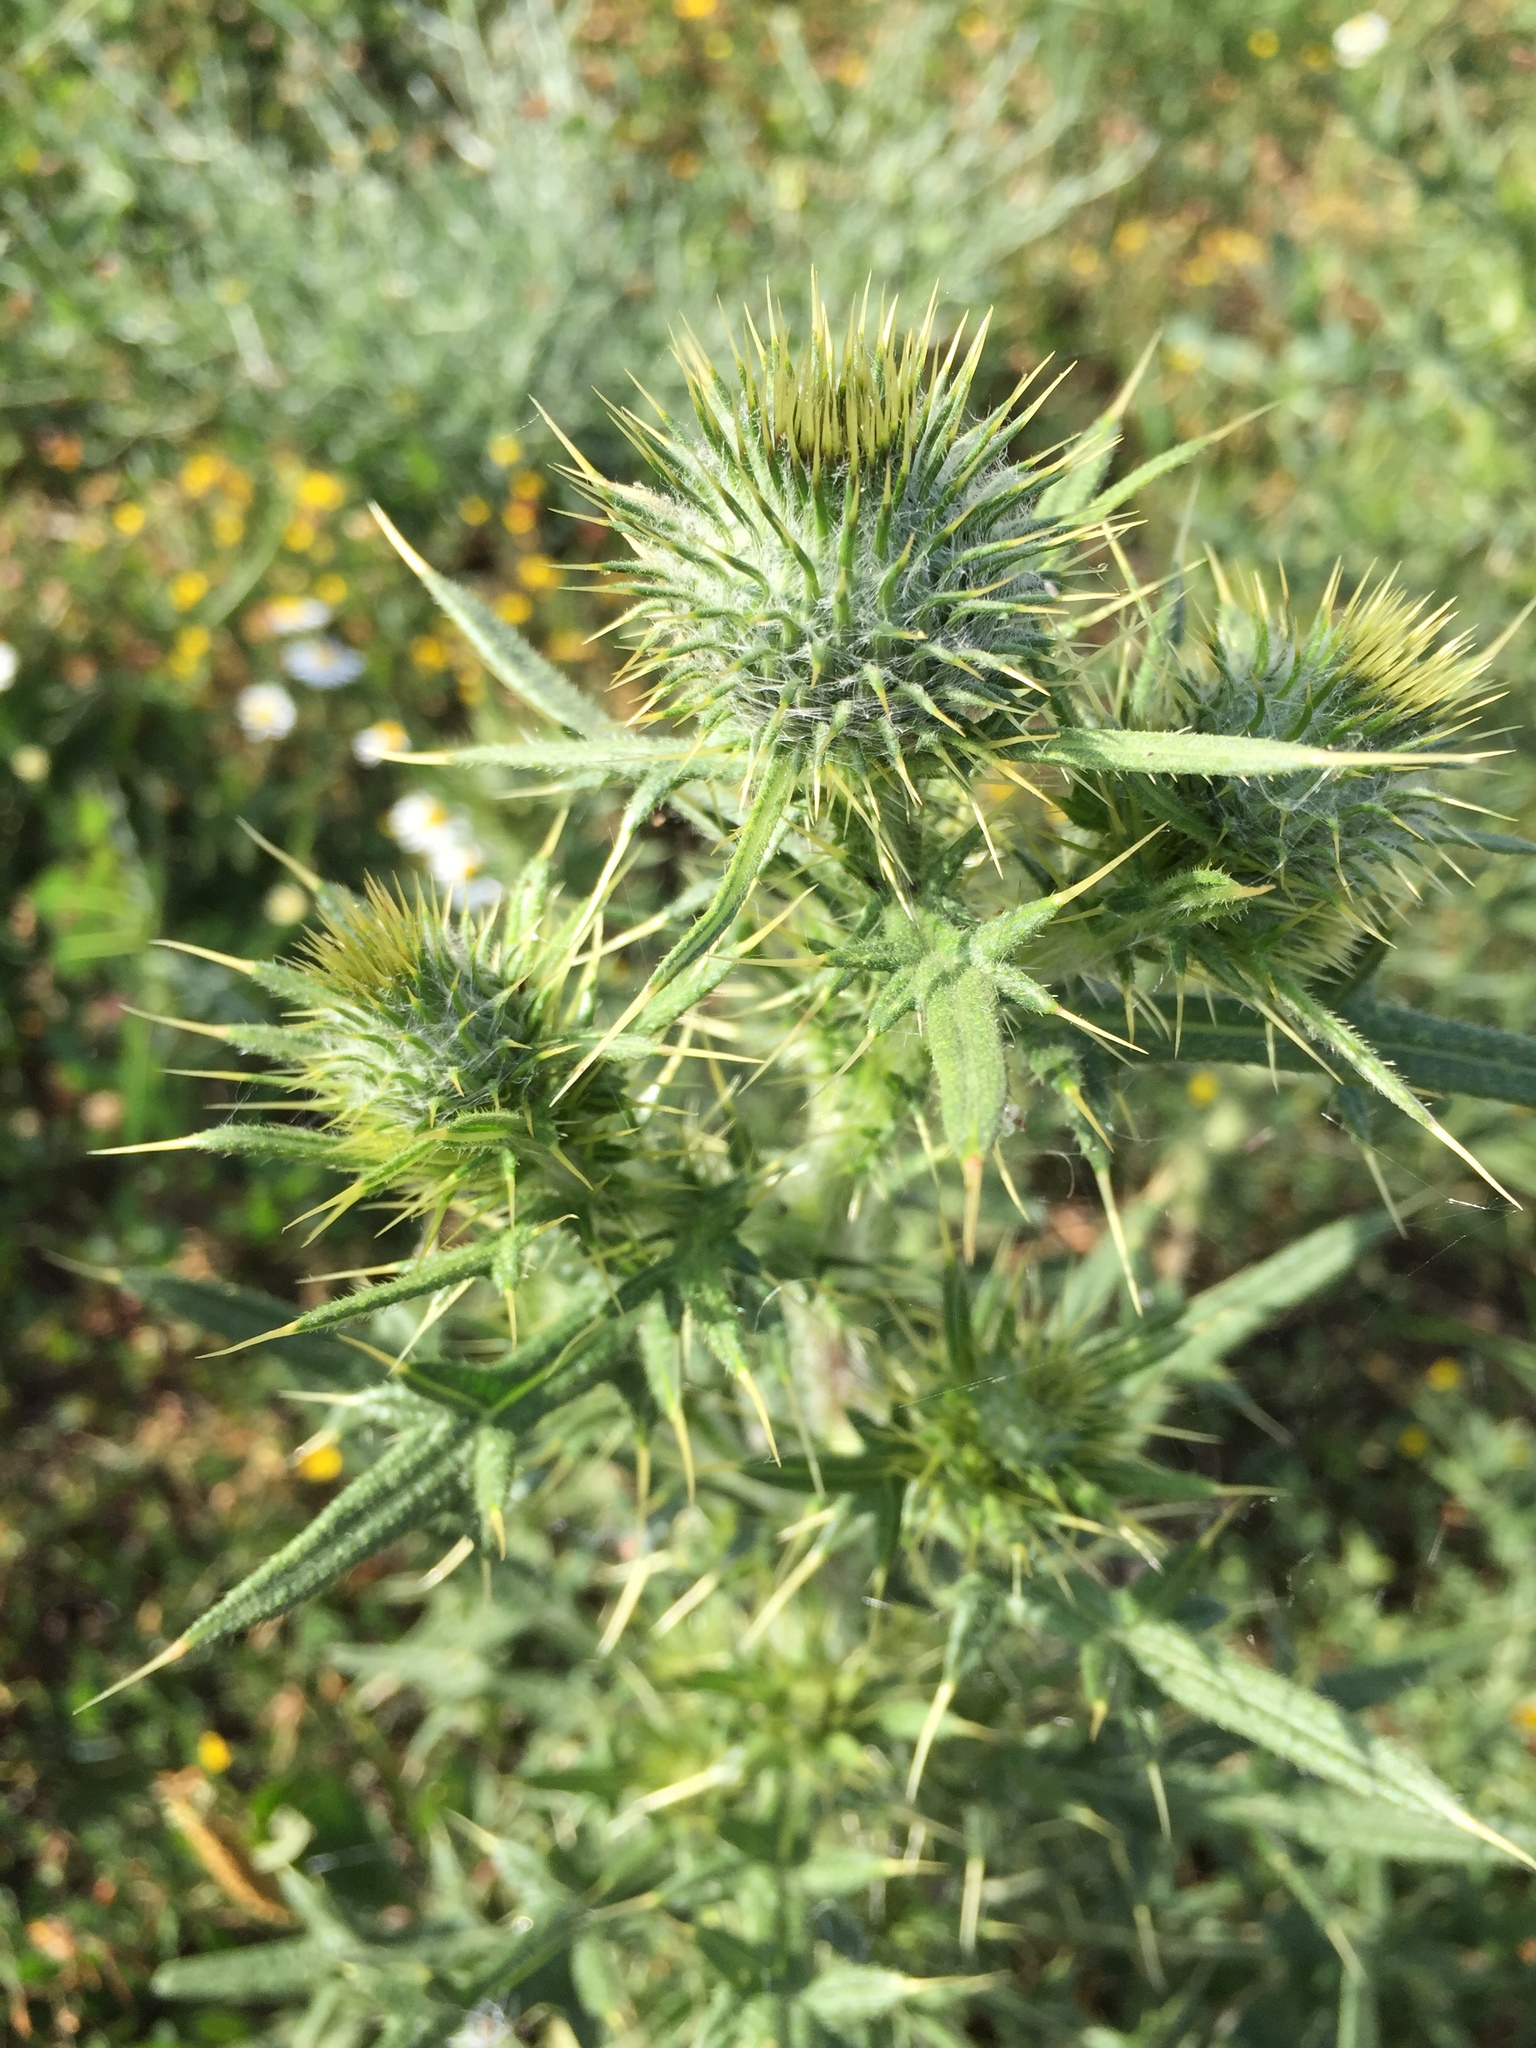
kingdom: Plantae
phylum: Tracheophyta
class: Magnoliopsida
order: Asterales
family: Asteraceae
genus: Cirsium
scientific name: Cirsium vulgare
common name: Bull thistle
